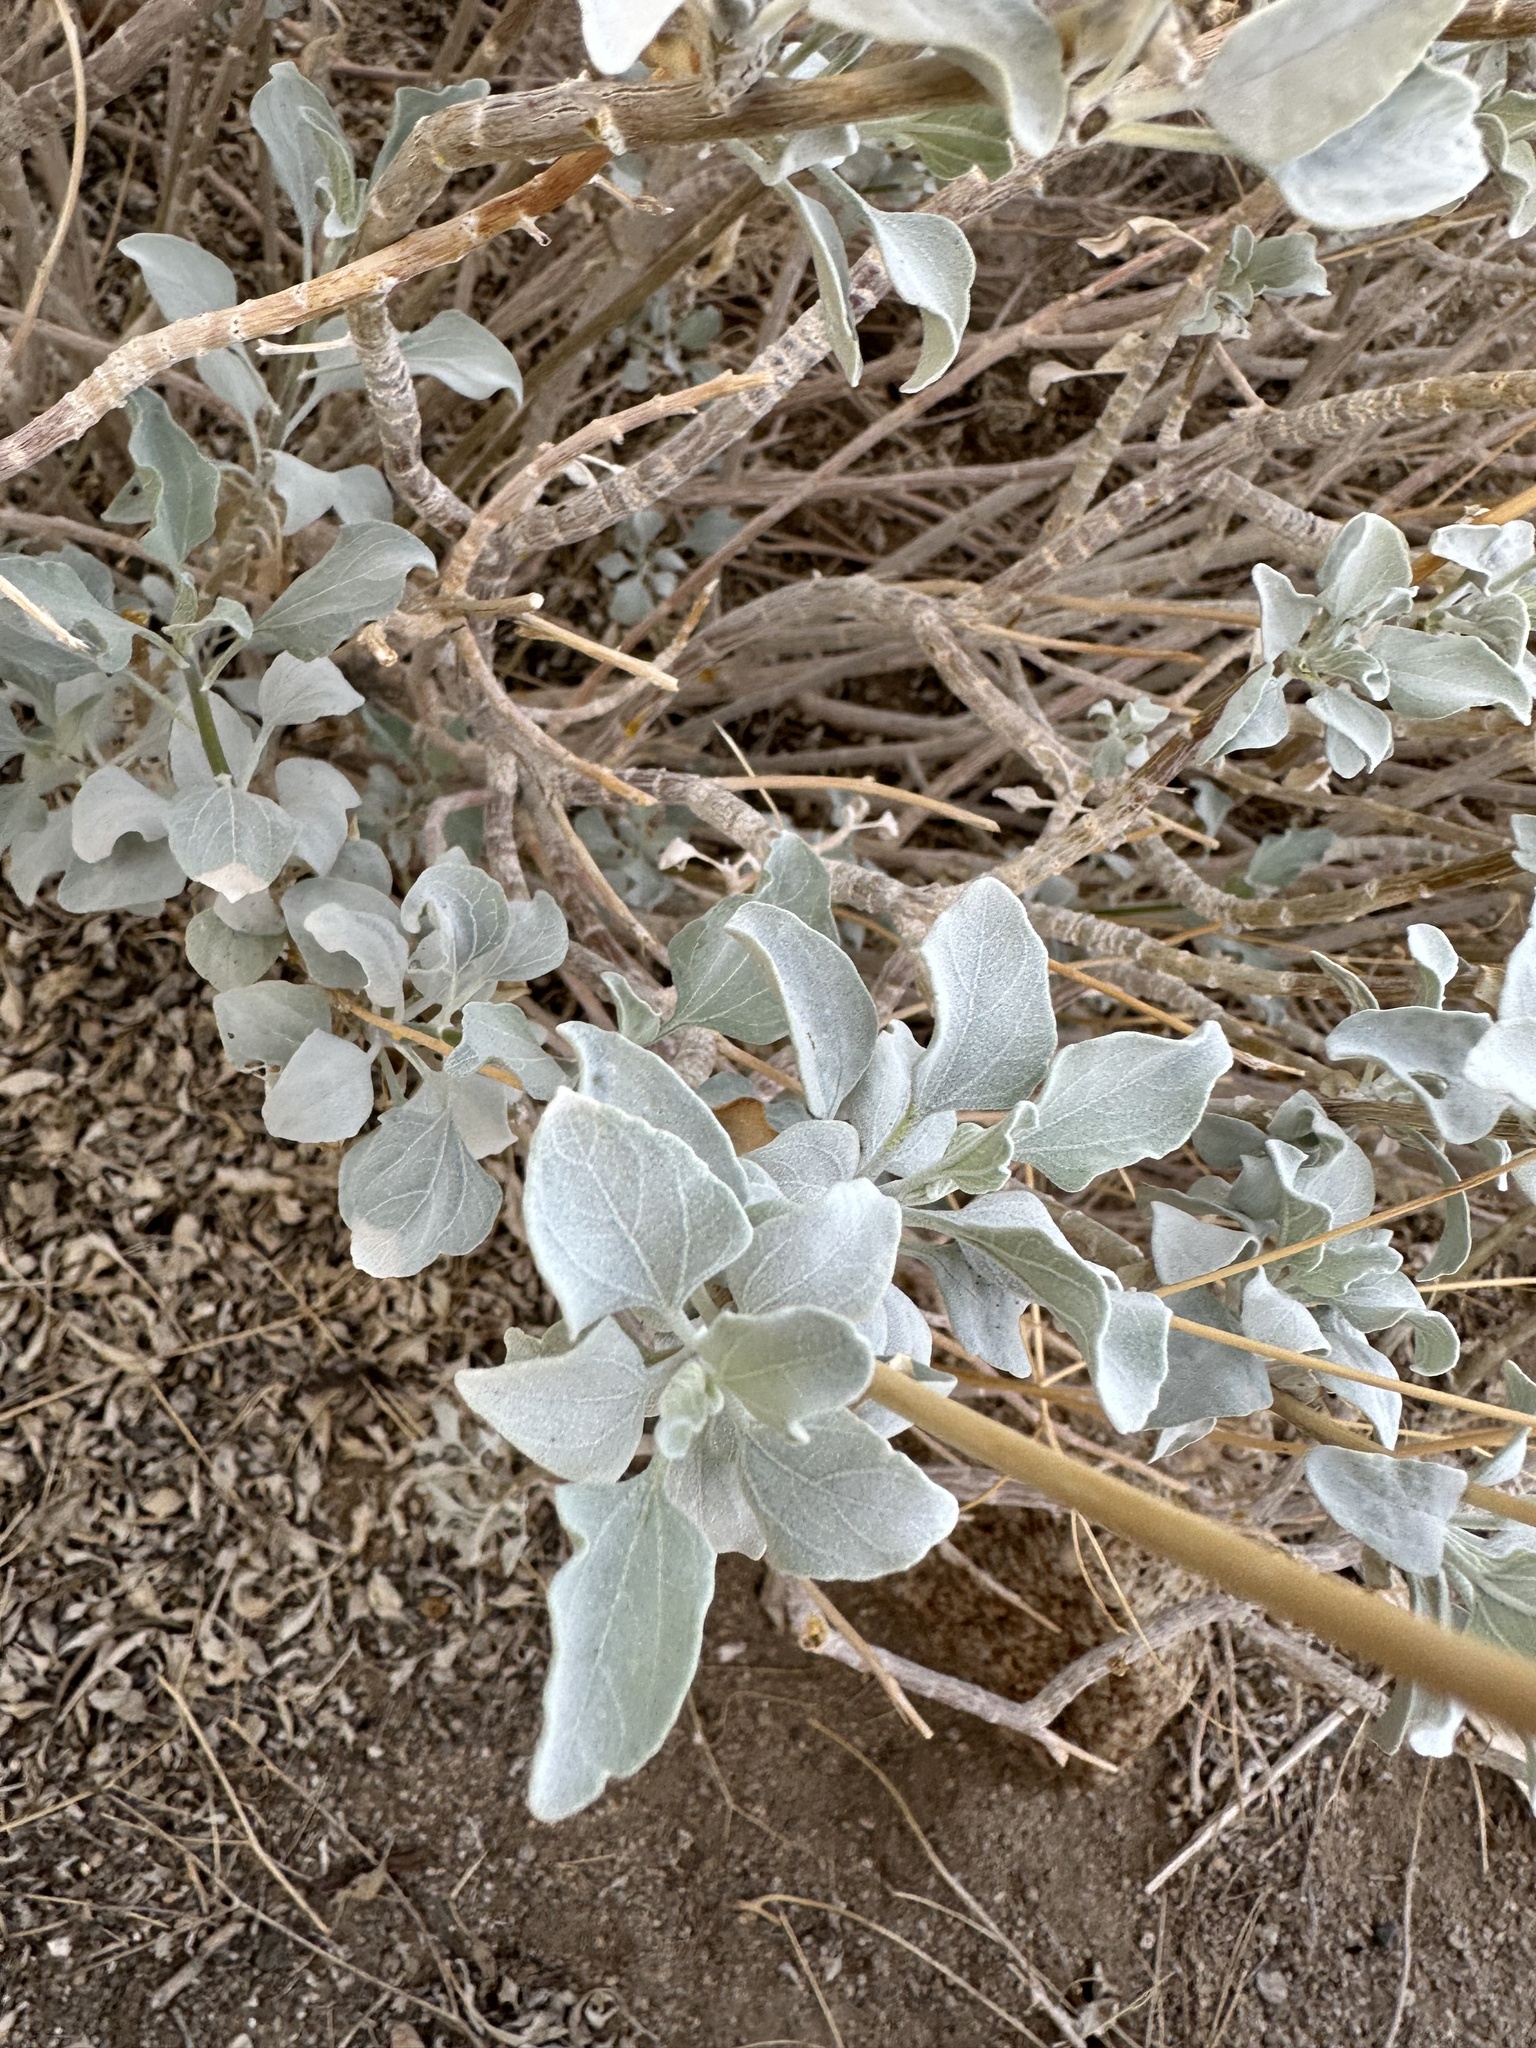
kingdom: Plantae
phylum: Tracheophyta
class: Magnoliopsida
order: Asterales
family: Asteraceae
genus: Encelia
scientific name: Encelia farinosa
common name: Brittlebush
